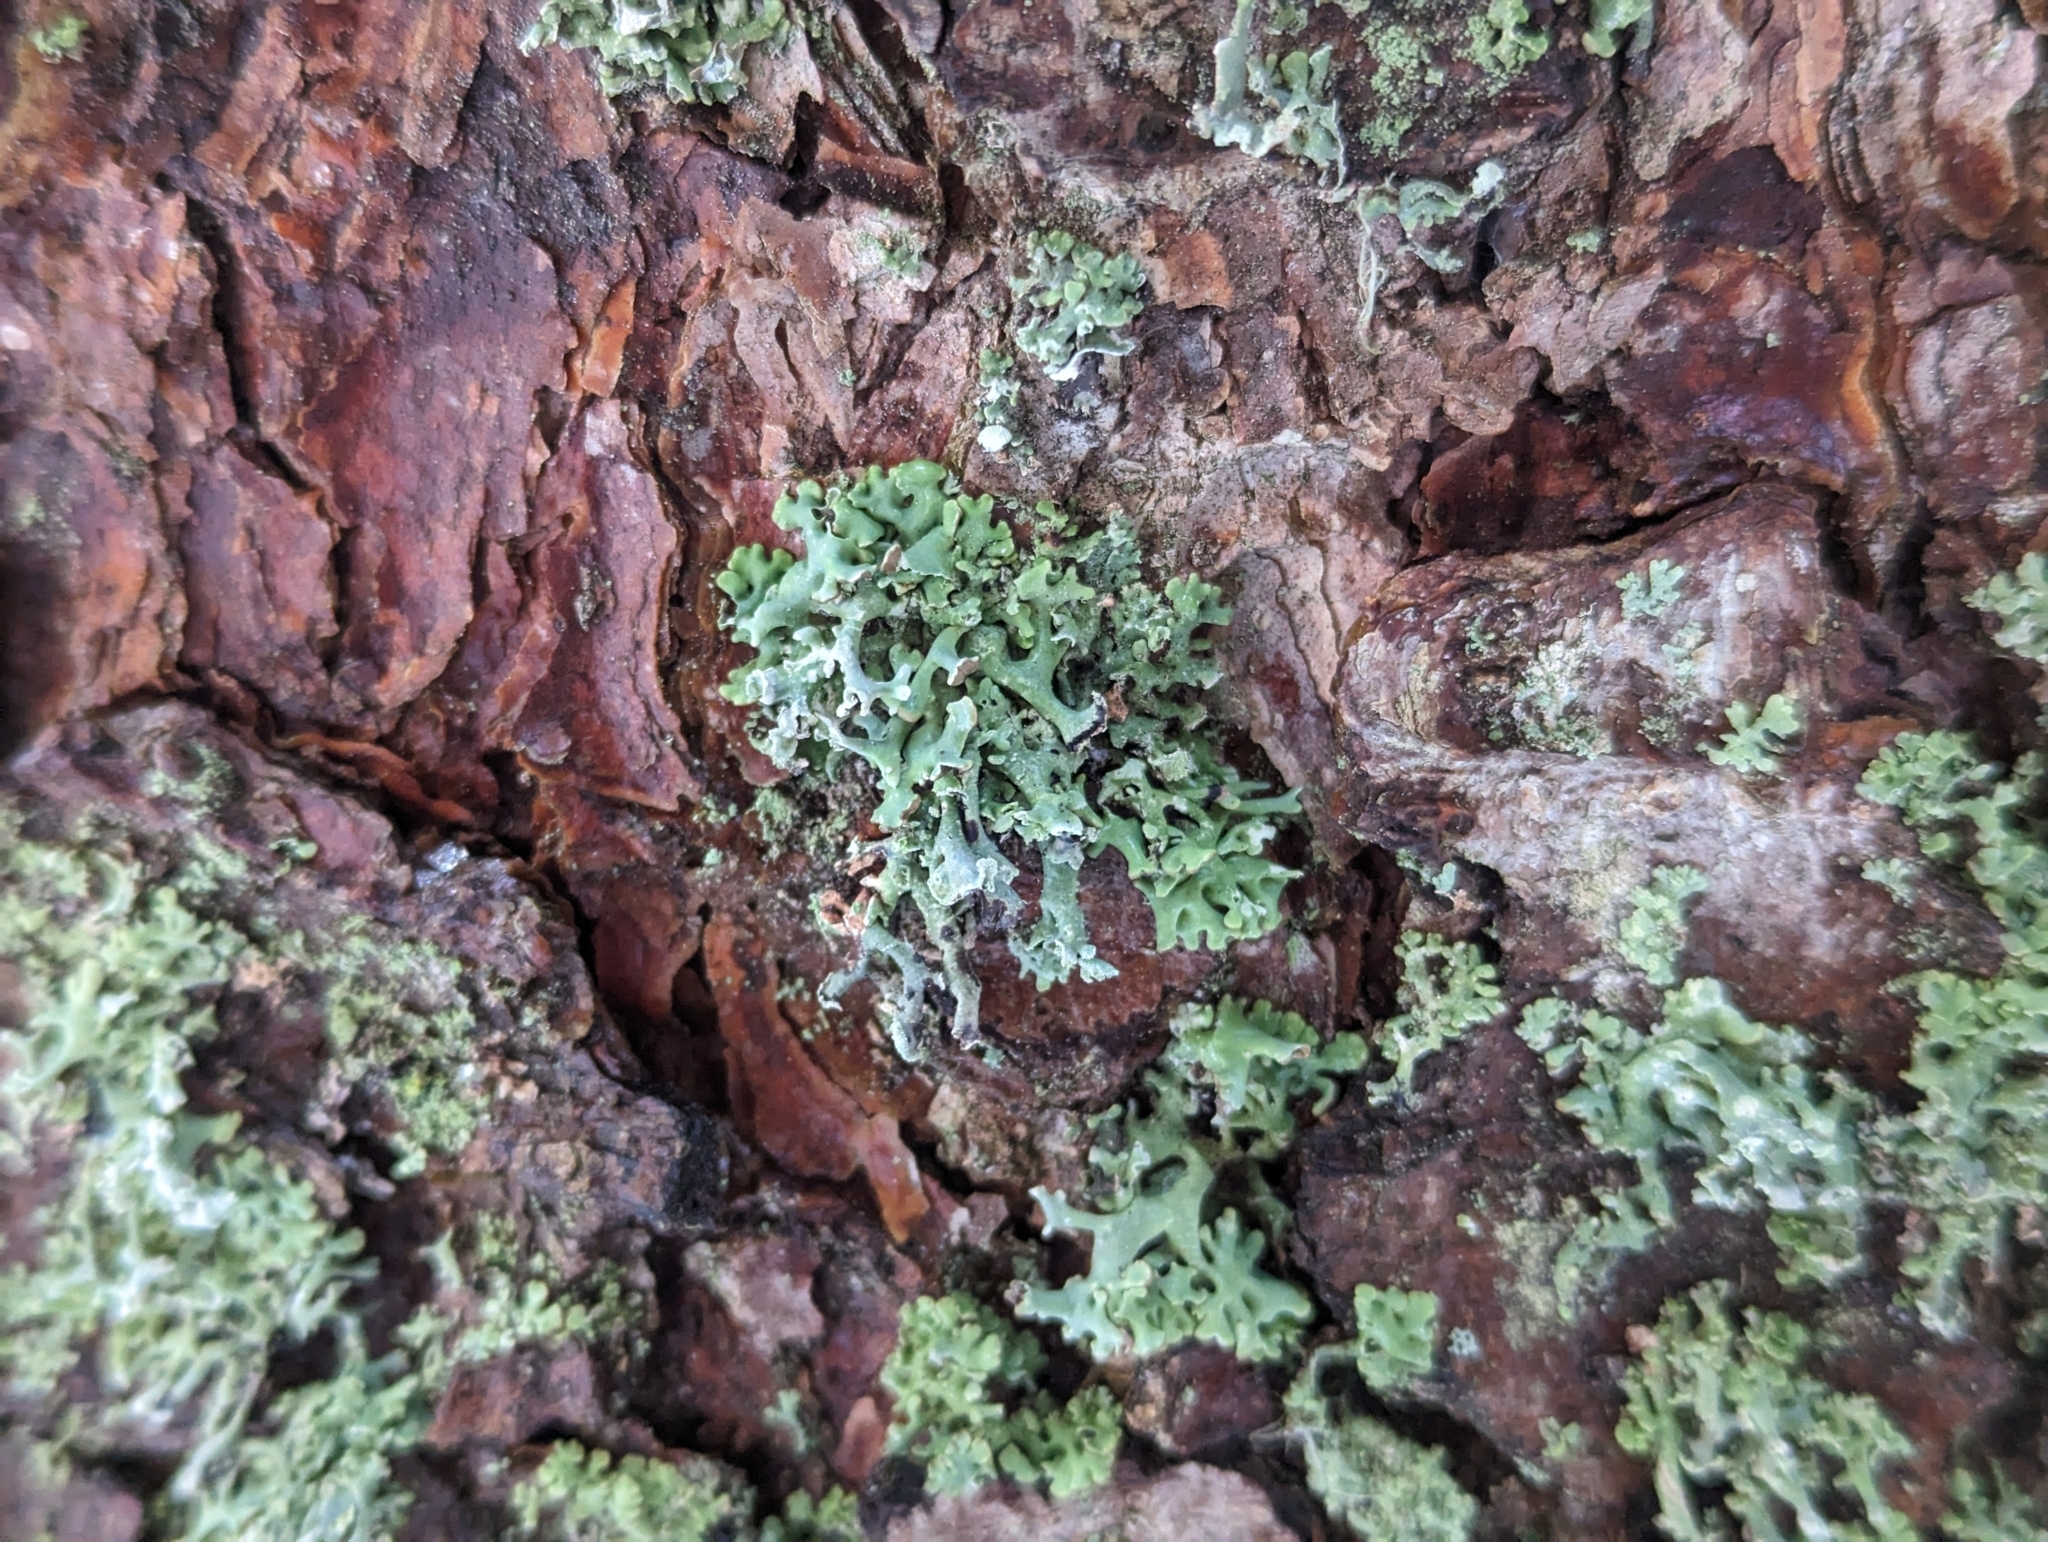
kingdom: Fungi
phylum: Ascomycota
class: Lecanoromycetes
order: Lecanorales
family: Parmeliaceae
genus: Hypogymnia
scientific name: Hypogymnia physodes
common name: Dark crottle
